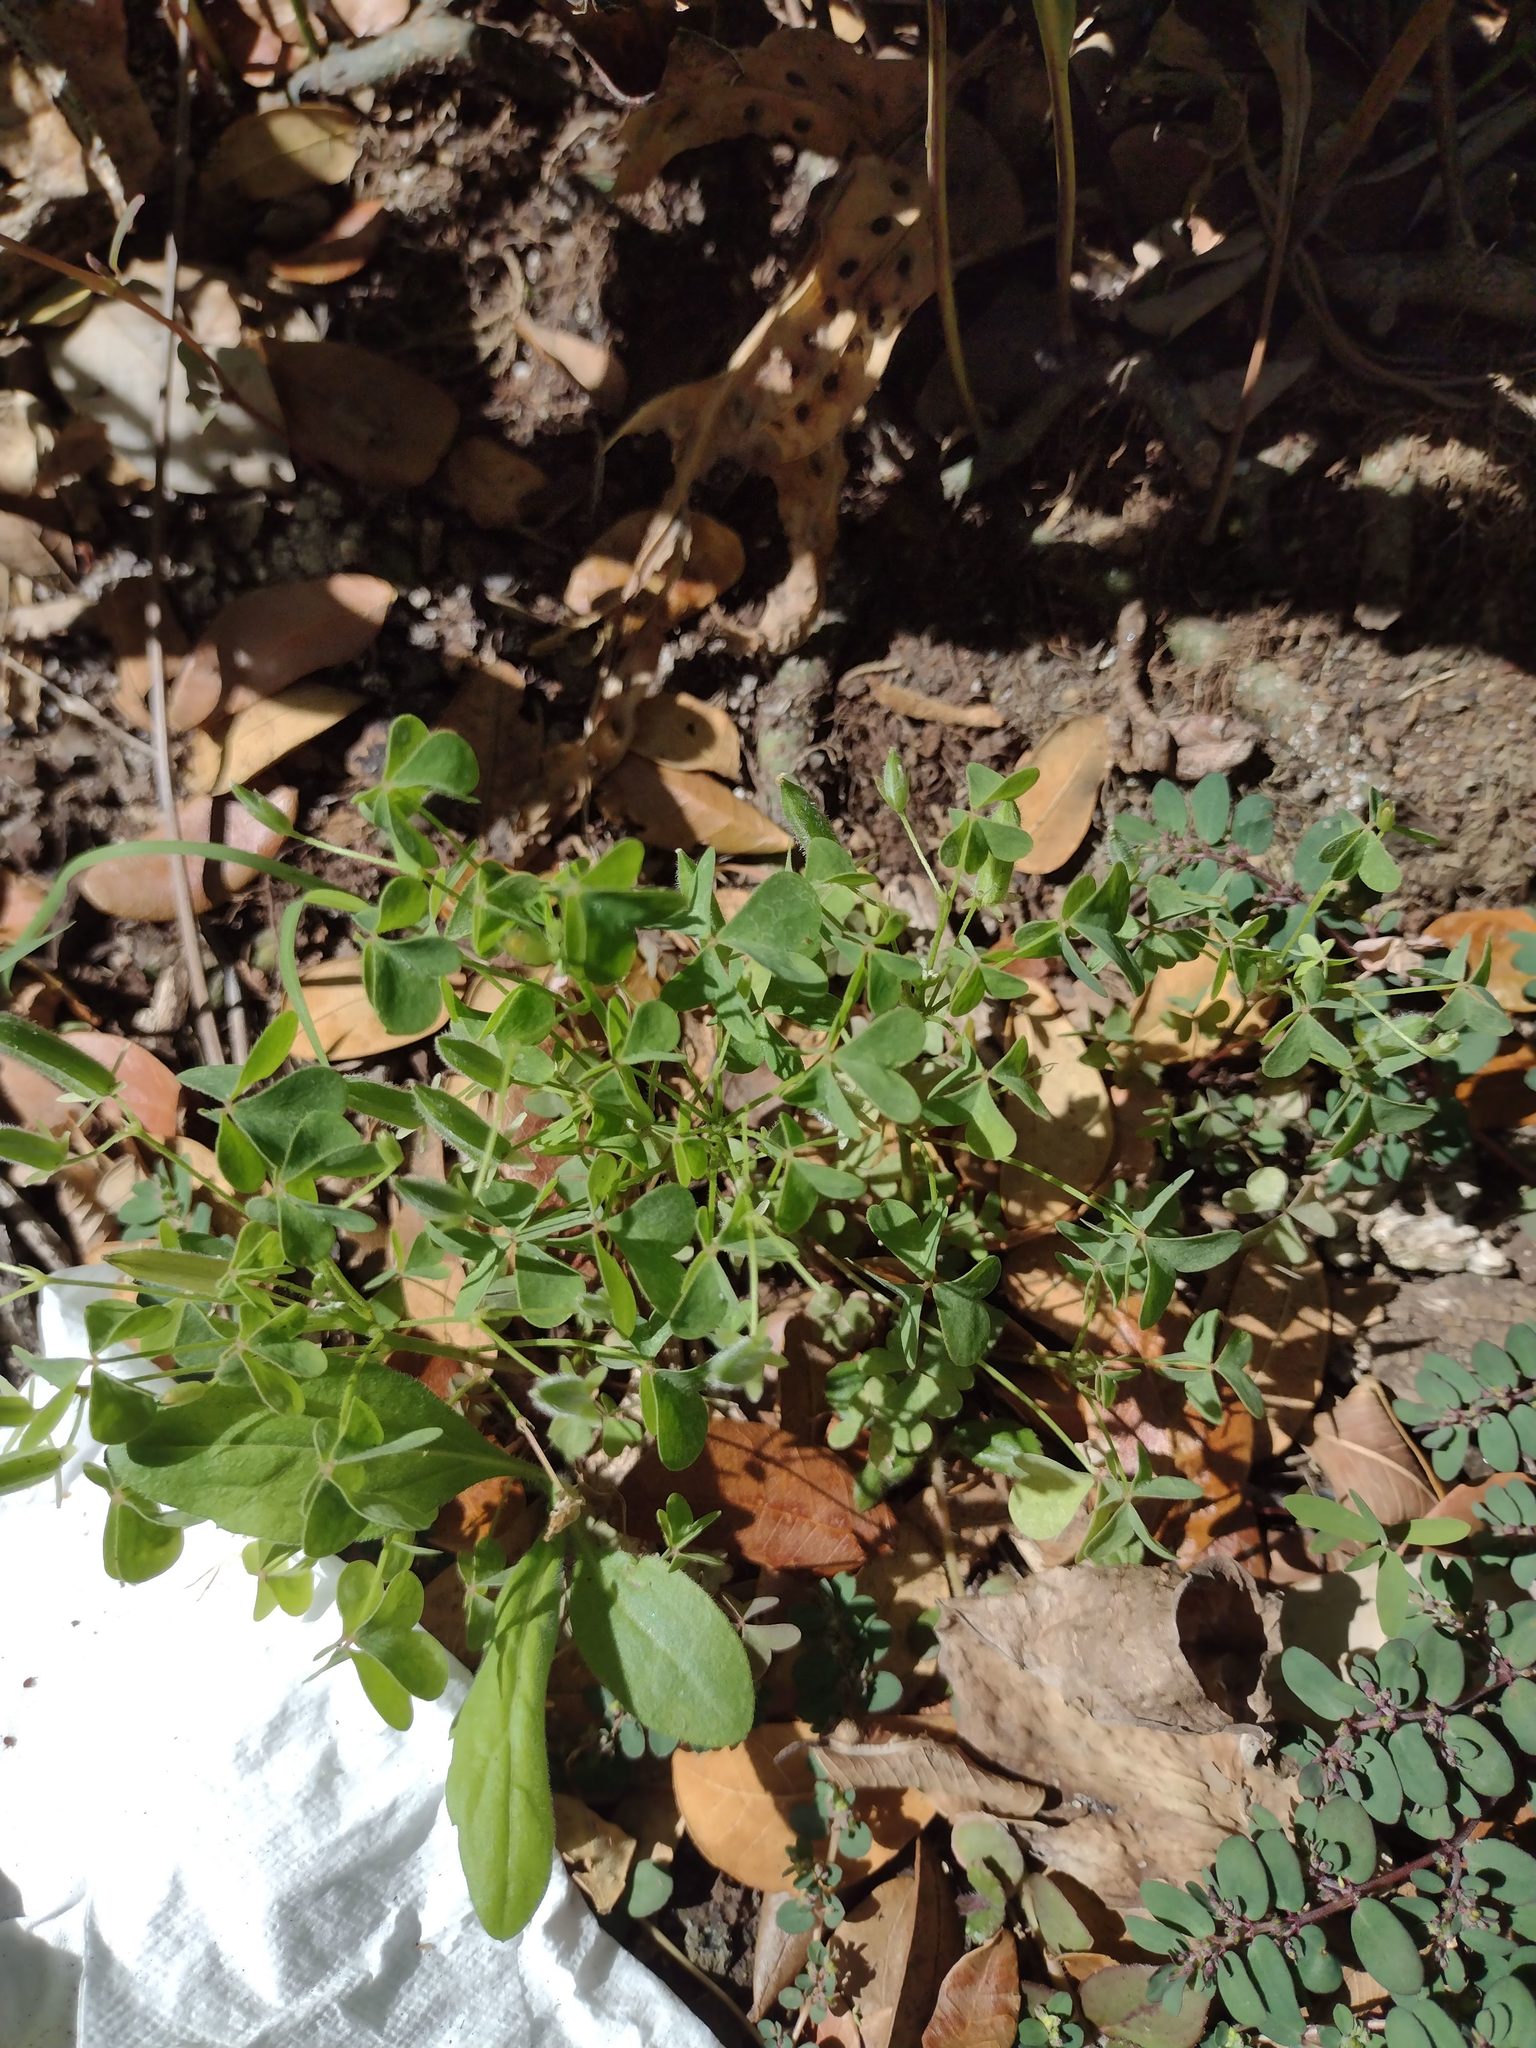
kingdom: Plantae
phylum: Tracheophyta
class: Magnoliopsida
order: Oxalidales
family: Oxalidaceae
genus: Oxalis
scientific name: Oxalis corniculata
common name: Procumbent yellow-sorrel
